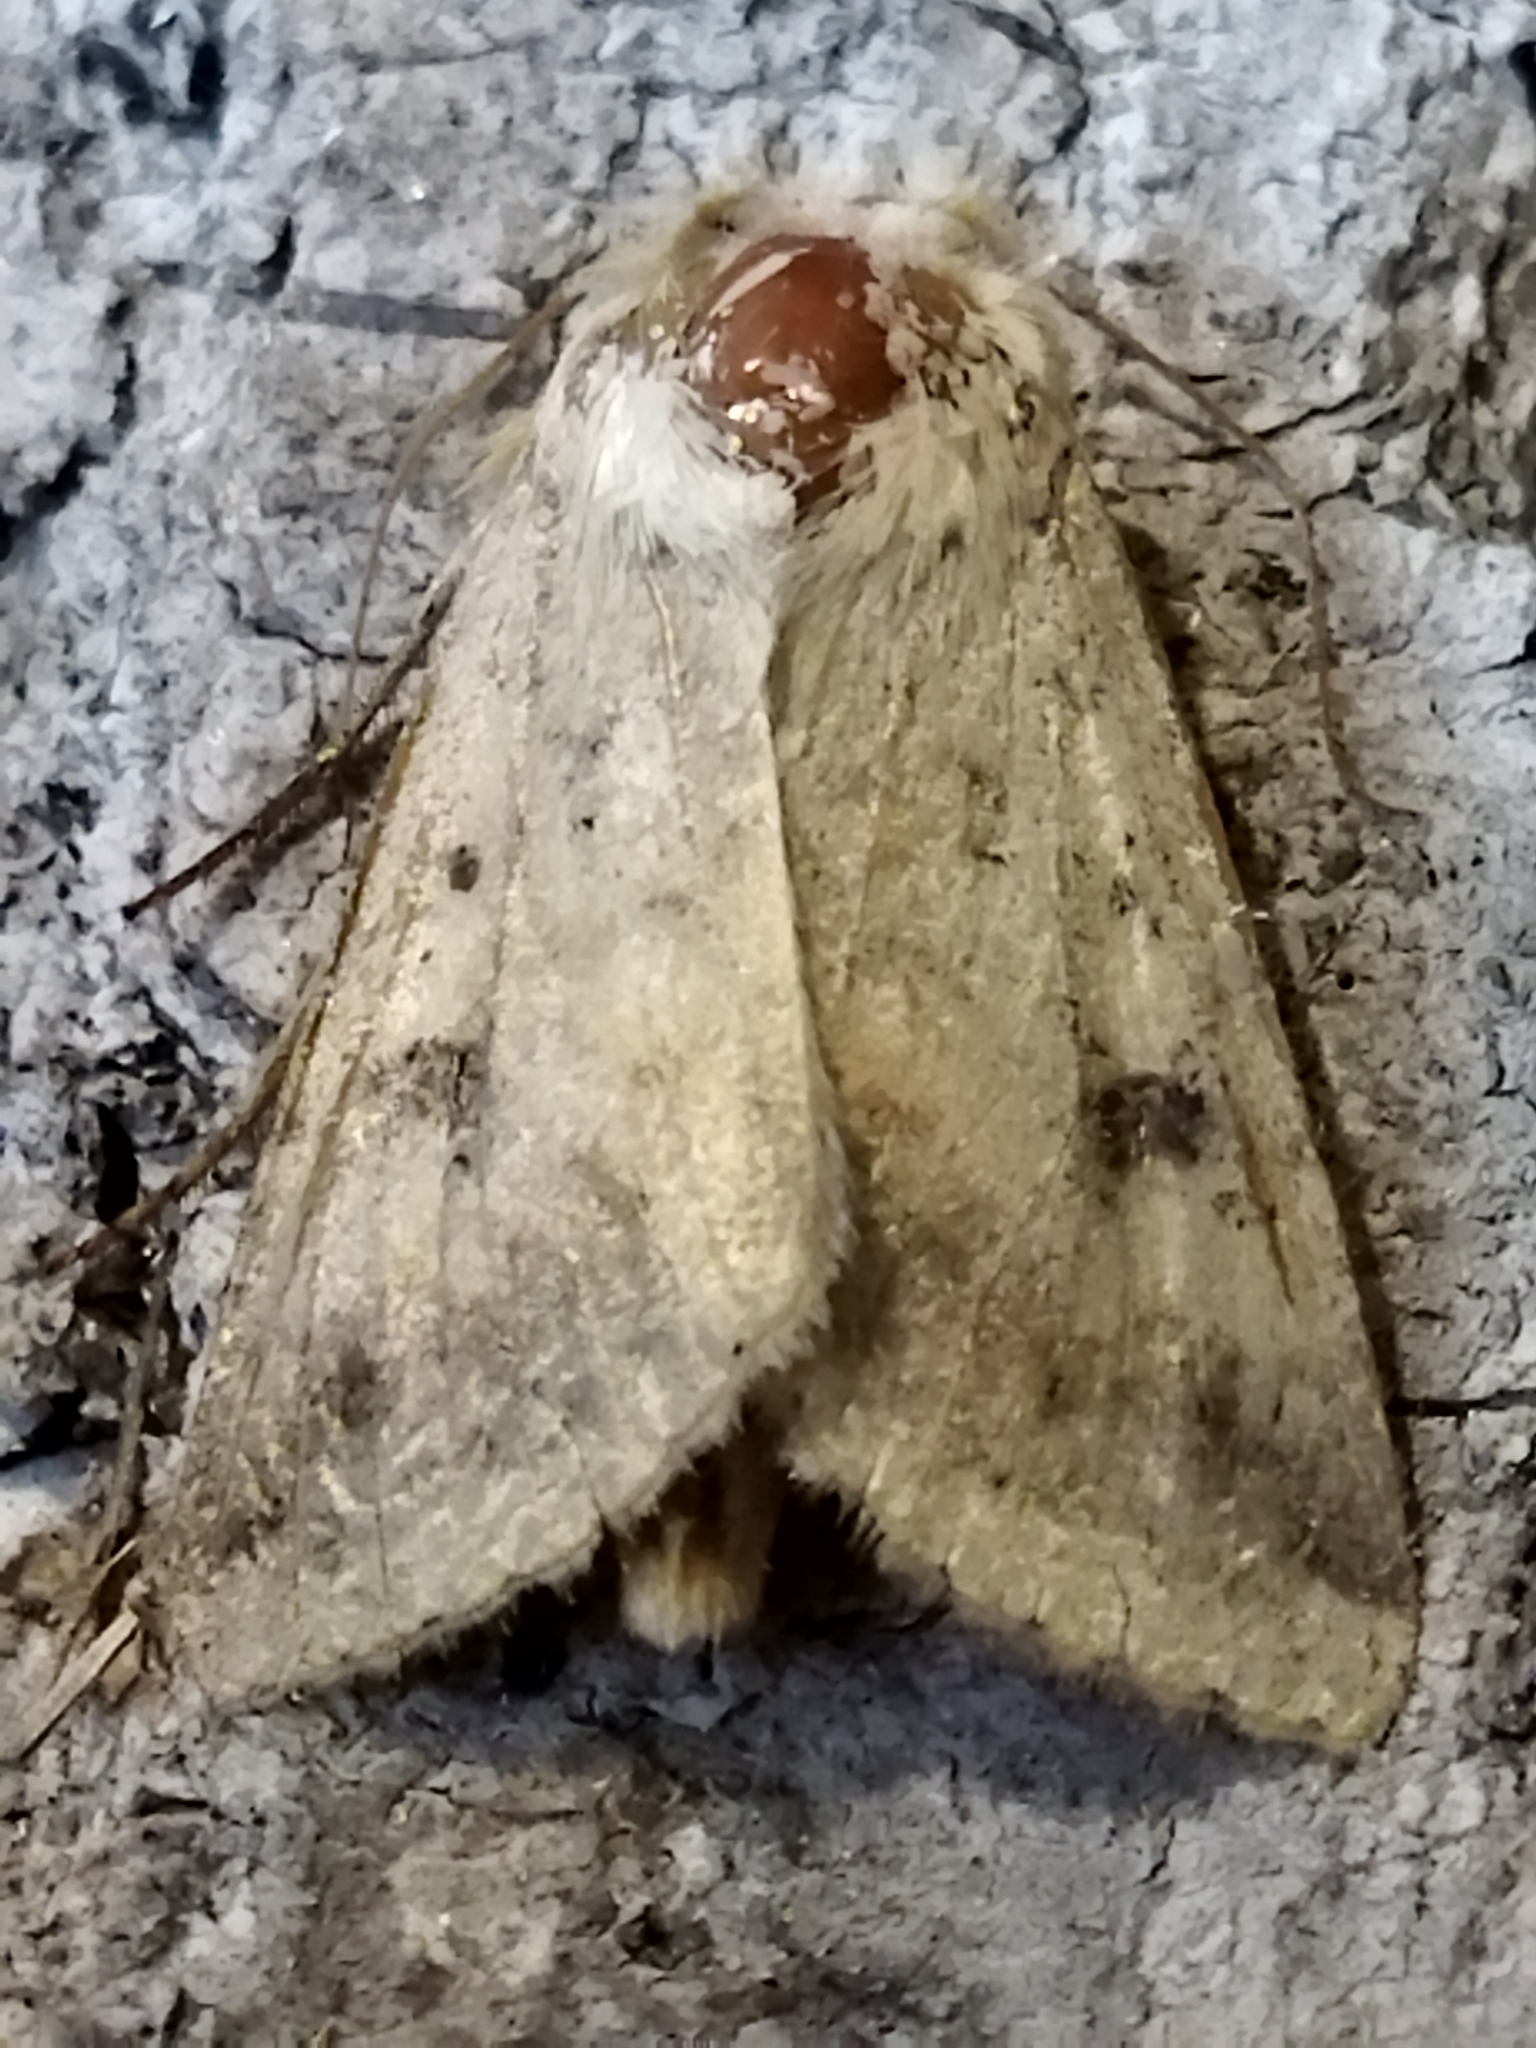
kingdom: Animalia
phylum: Arthropoda
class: Insecta
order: Lepidoptera
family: Noctuidae
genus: Helicoverpa
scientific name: Helicoverpa armigera
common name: Cotton bollworm
